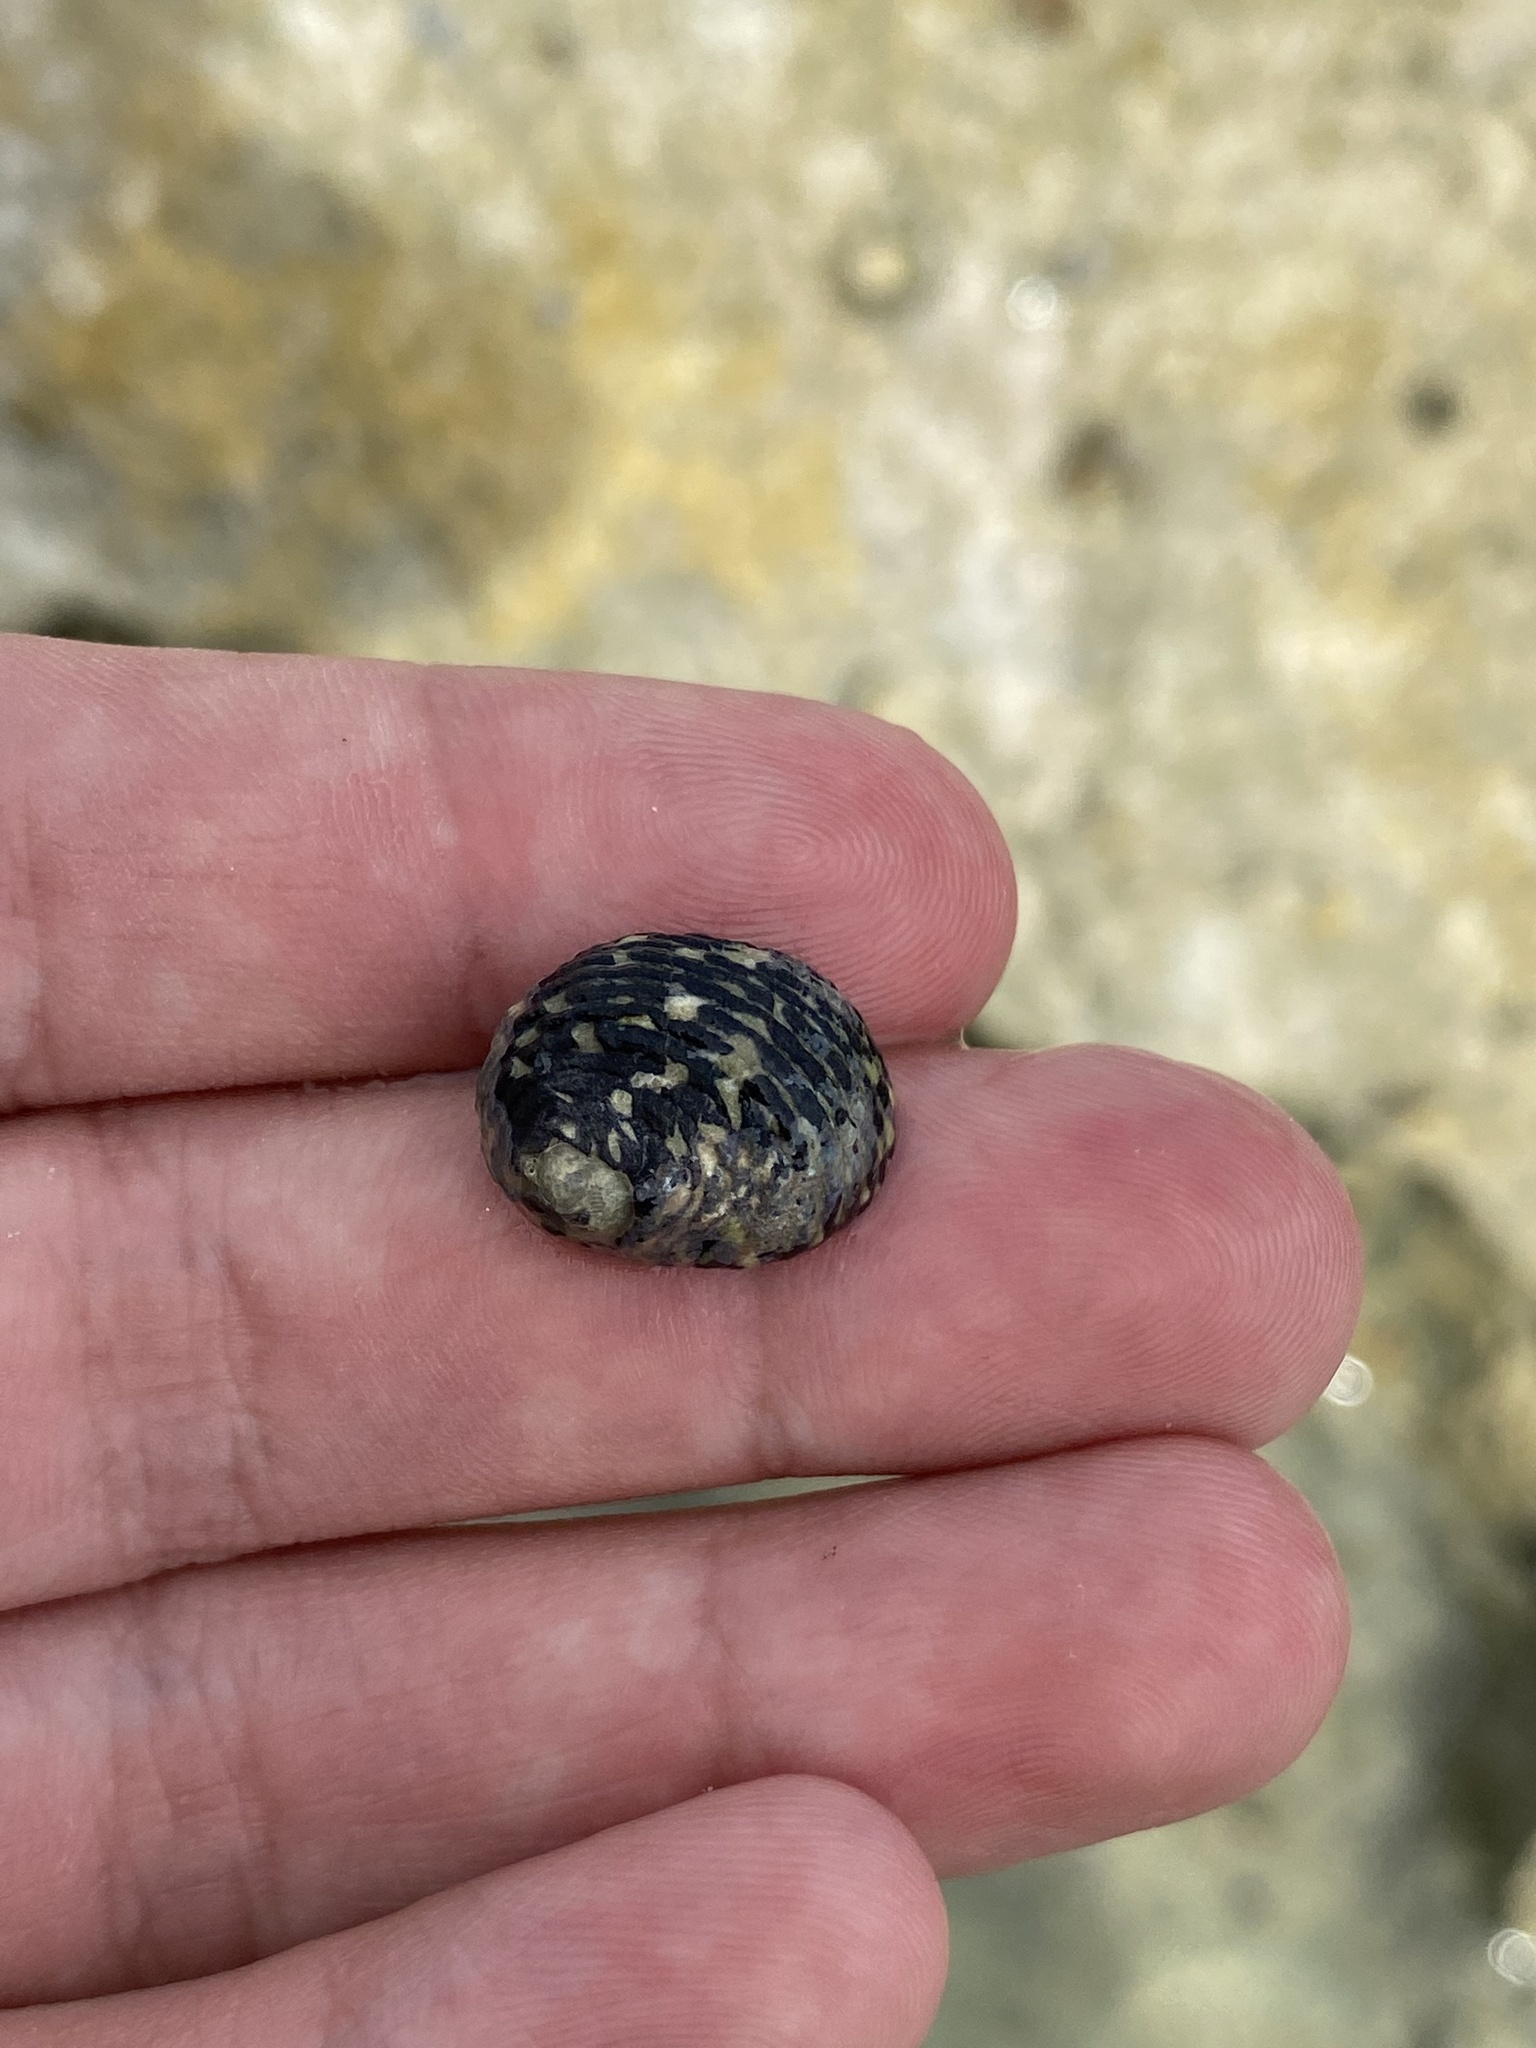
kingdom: Animalia
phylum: Mollusca
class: Gastropoda
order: Cycloneritida
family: Neritidae
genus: Nerita
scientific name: Nerita tessellata
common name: Checkered nerite
